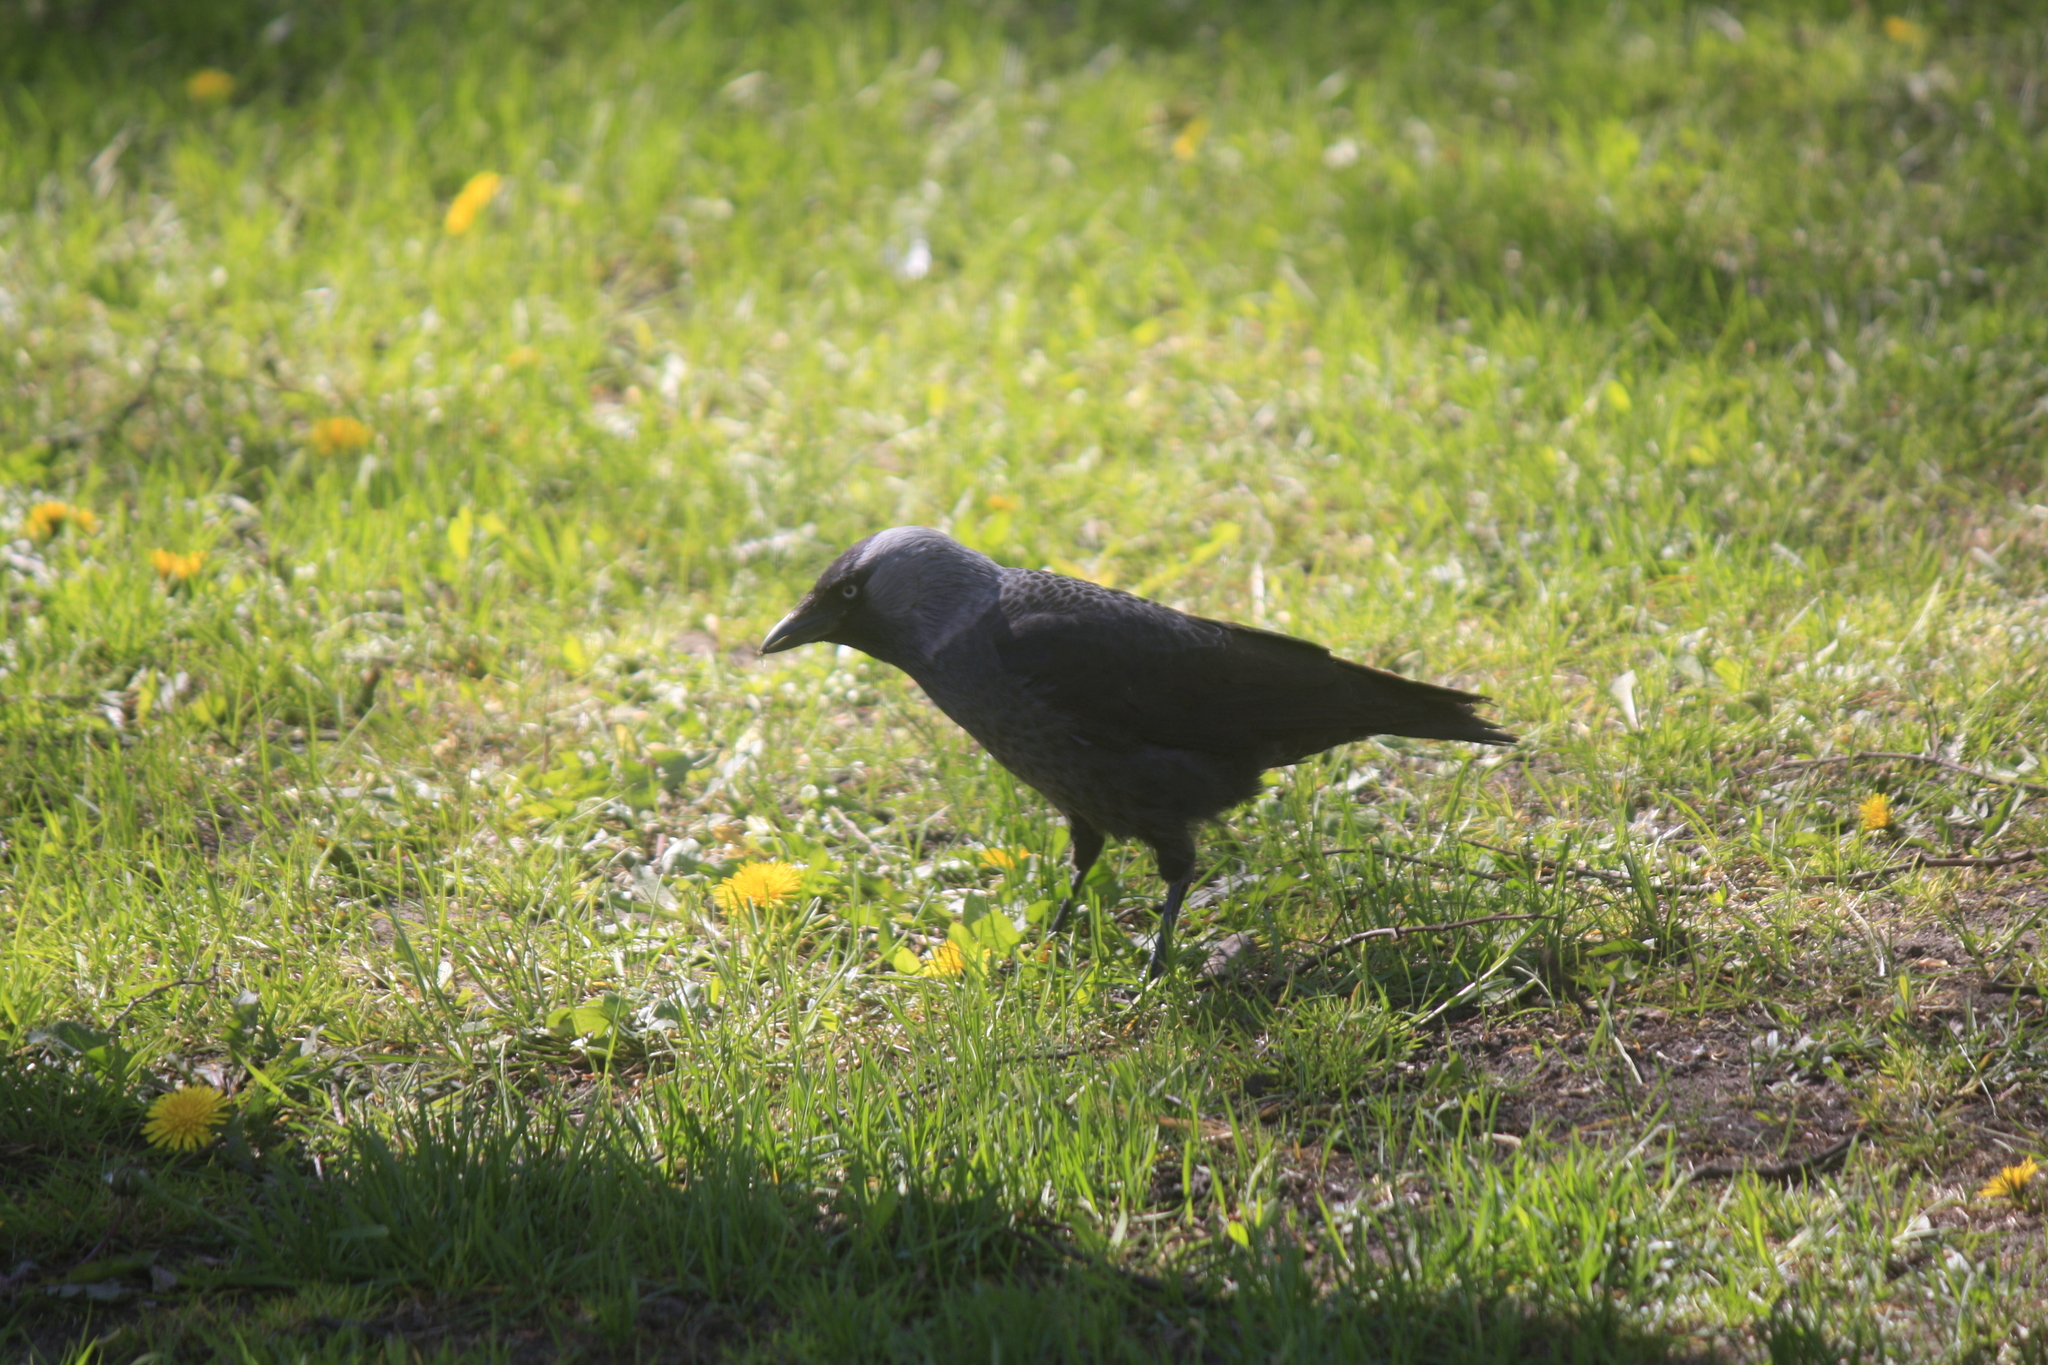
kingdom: Animalia
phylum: Chordata
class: Aves
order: Passeriformes
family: Corvidae
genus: Coloeus
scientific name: Coloeus monedula
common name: Western jackdaw
